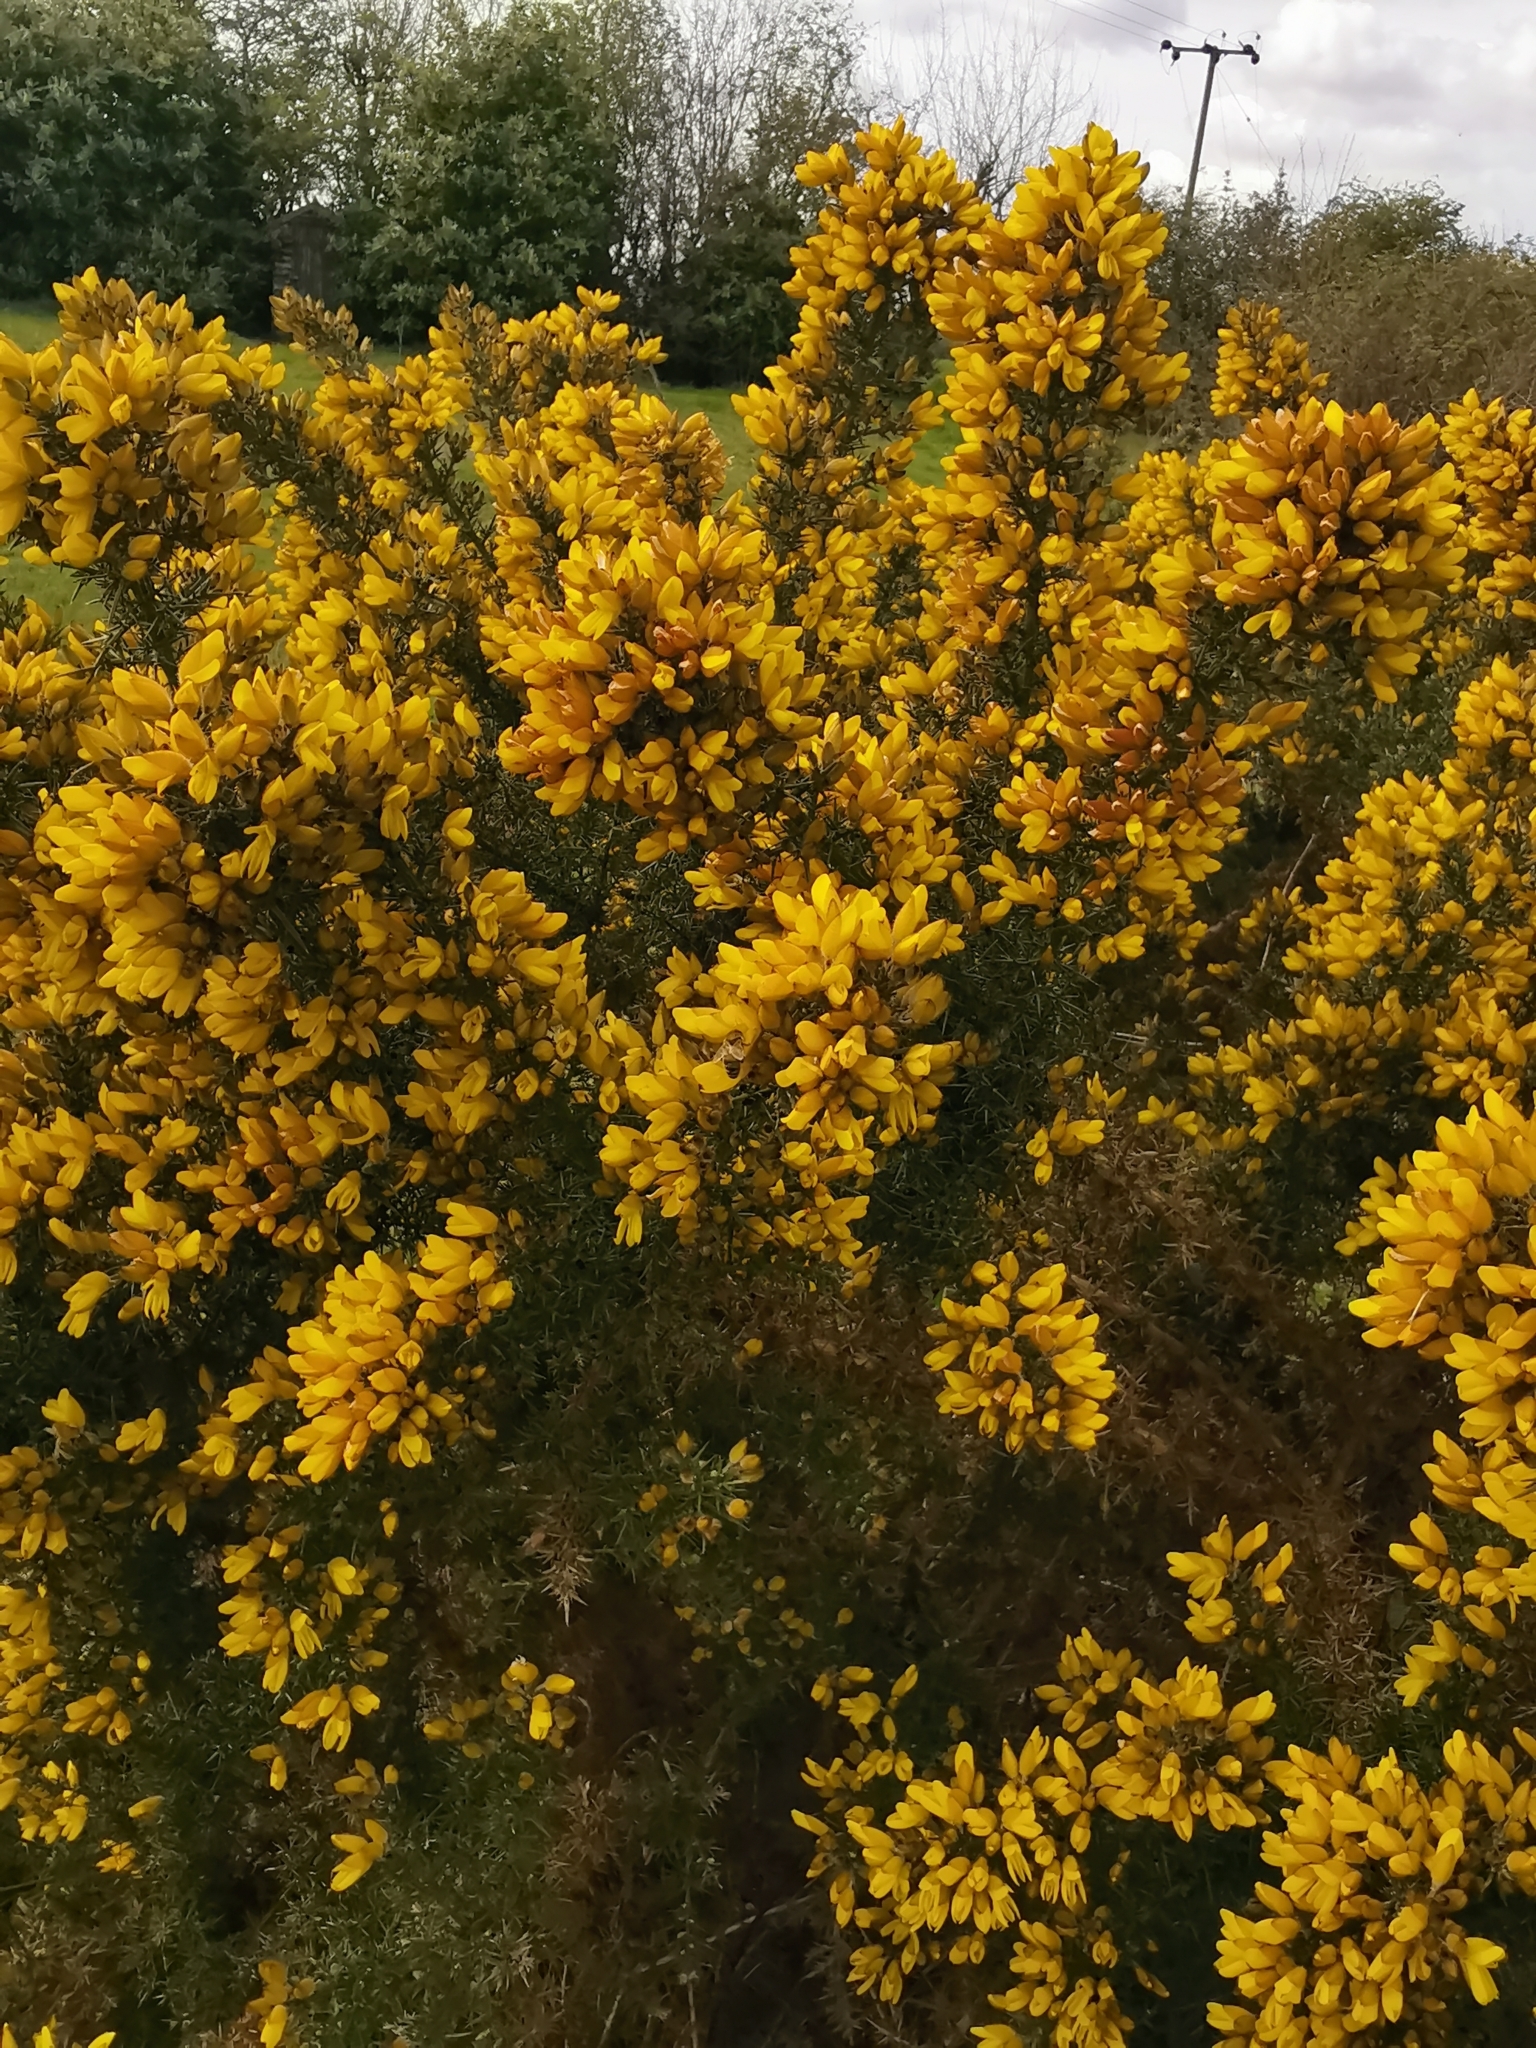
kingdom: Plantae
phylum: Tracheophyta
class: Magnoliopsida
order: Fabales
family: Fabaceae
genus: Ulex
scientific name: Ulex europaeus
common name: Common gorse
